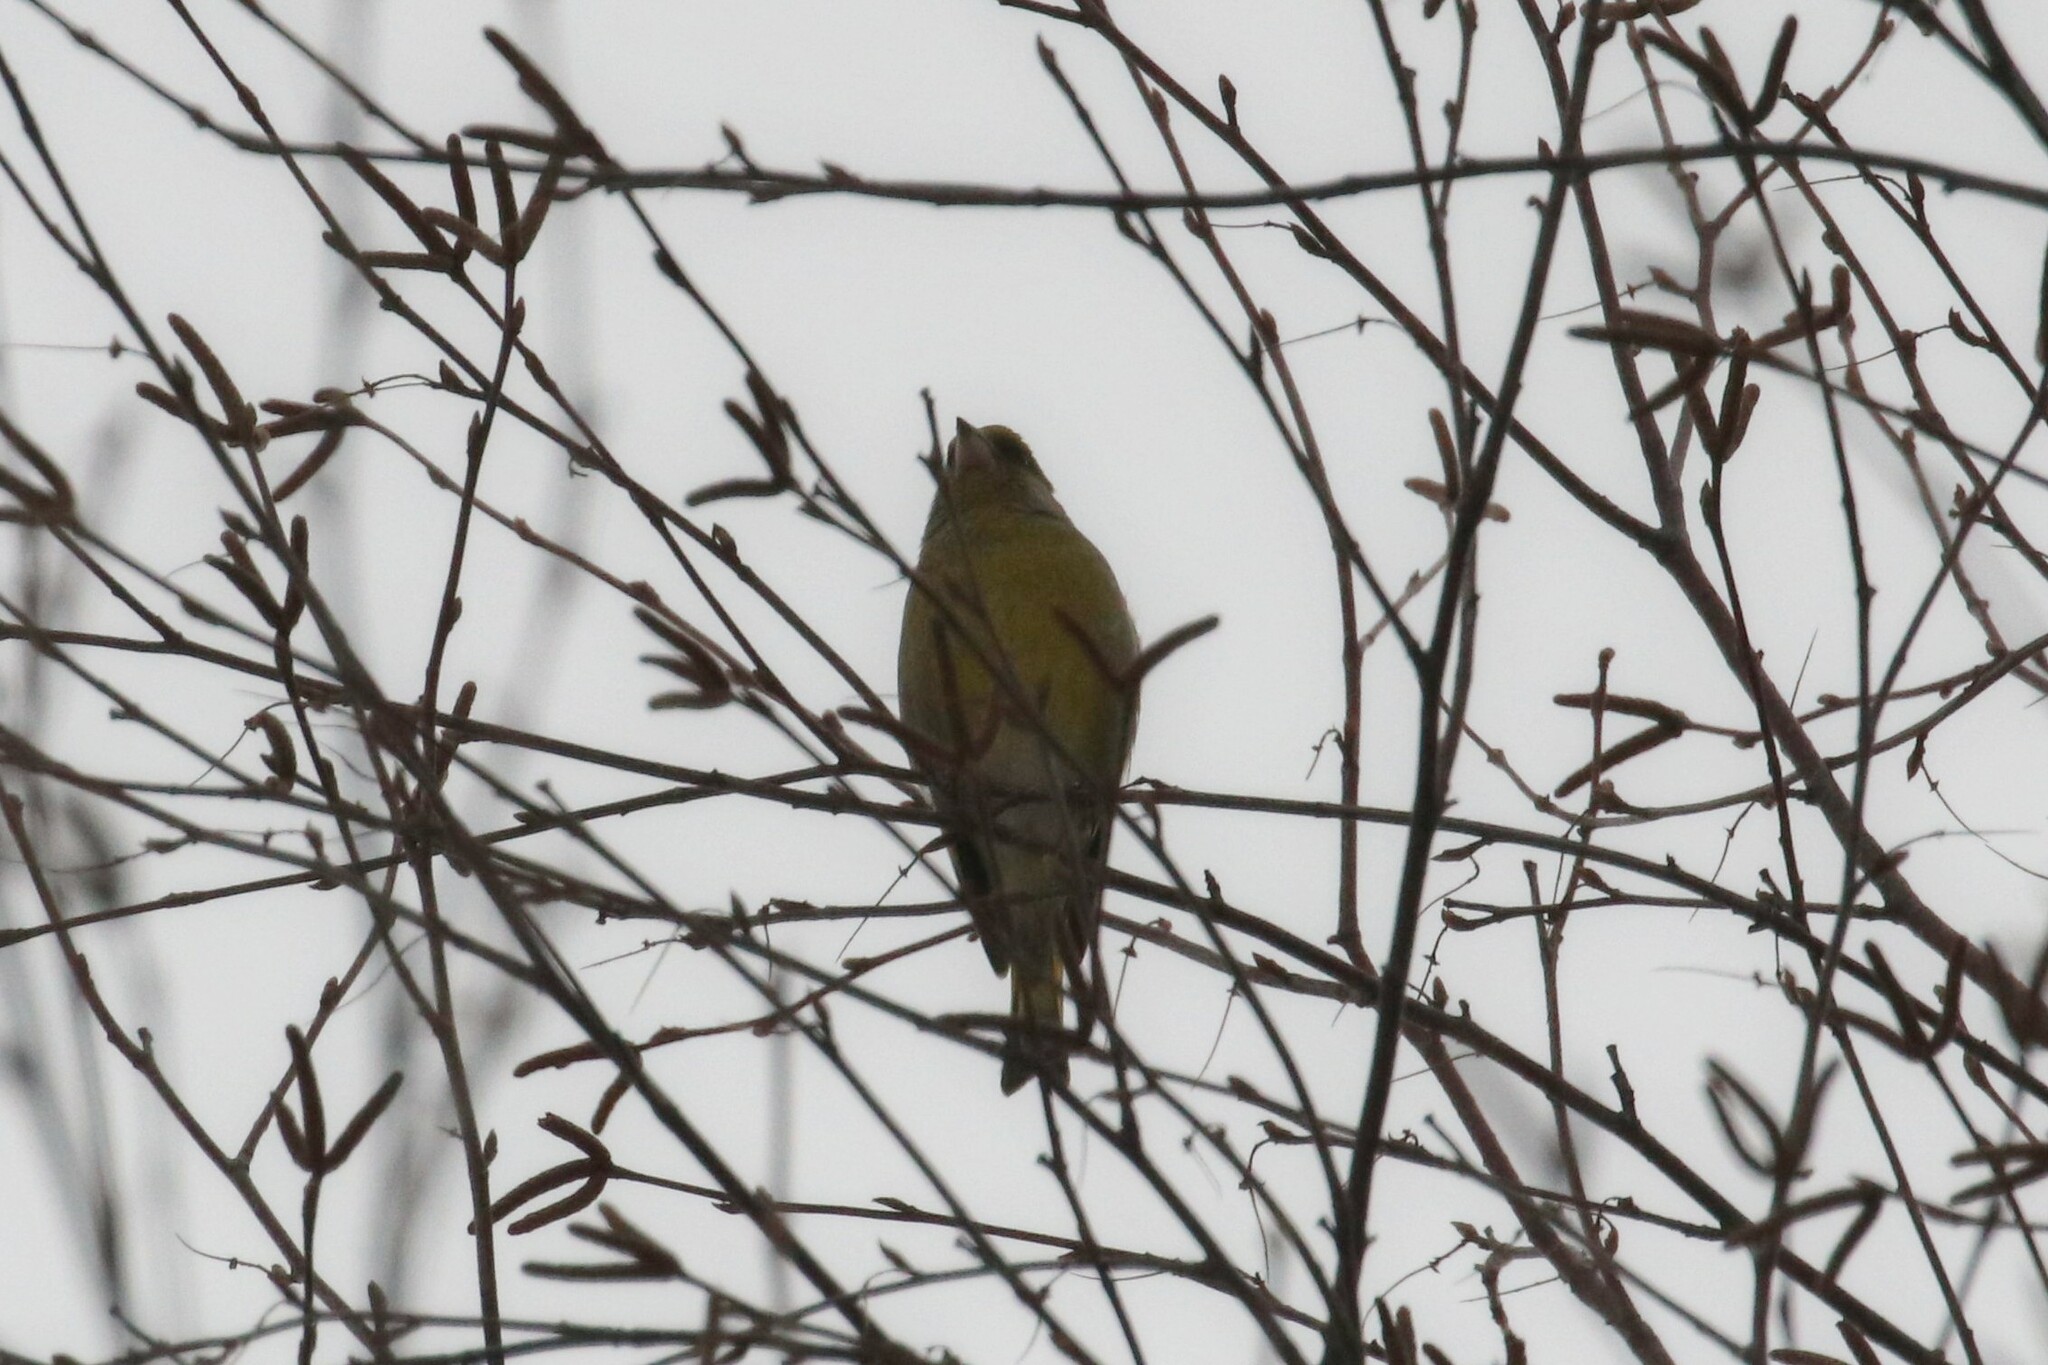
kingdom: Plantae
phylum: Tracheophyta
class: Liliopsida
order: Poales
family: Poaceae
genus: Chloris
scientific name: Chloris chloris
